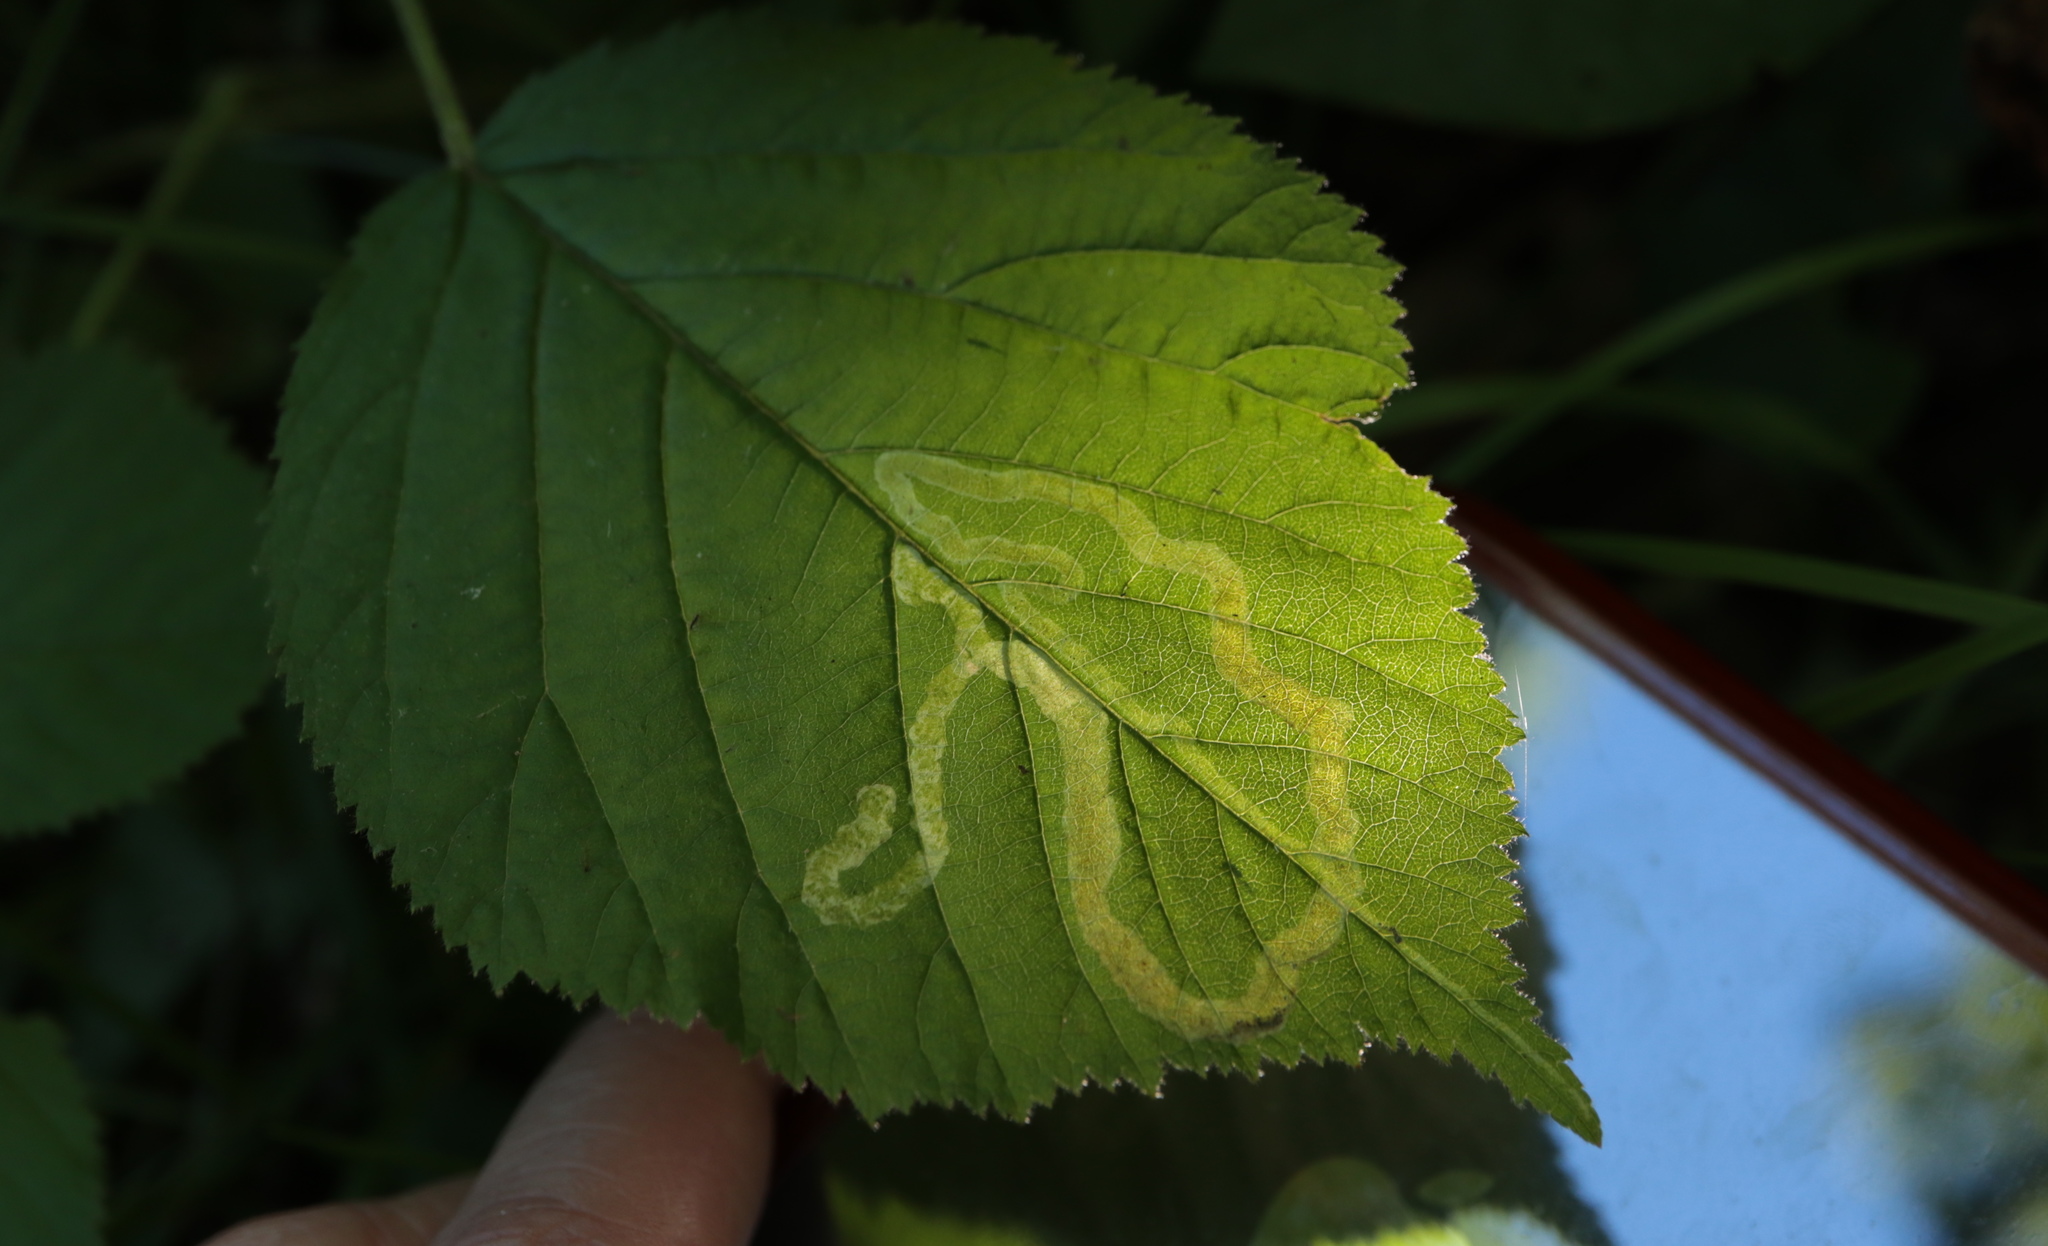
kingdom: Animalia
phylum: Arthropoda
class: Insecta
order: Diptera
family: Agromyzidae
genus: Agromyza
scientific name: Agromyza vockerothi
